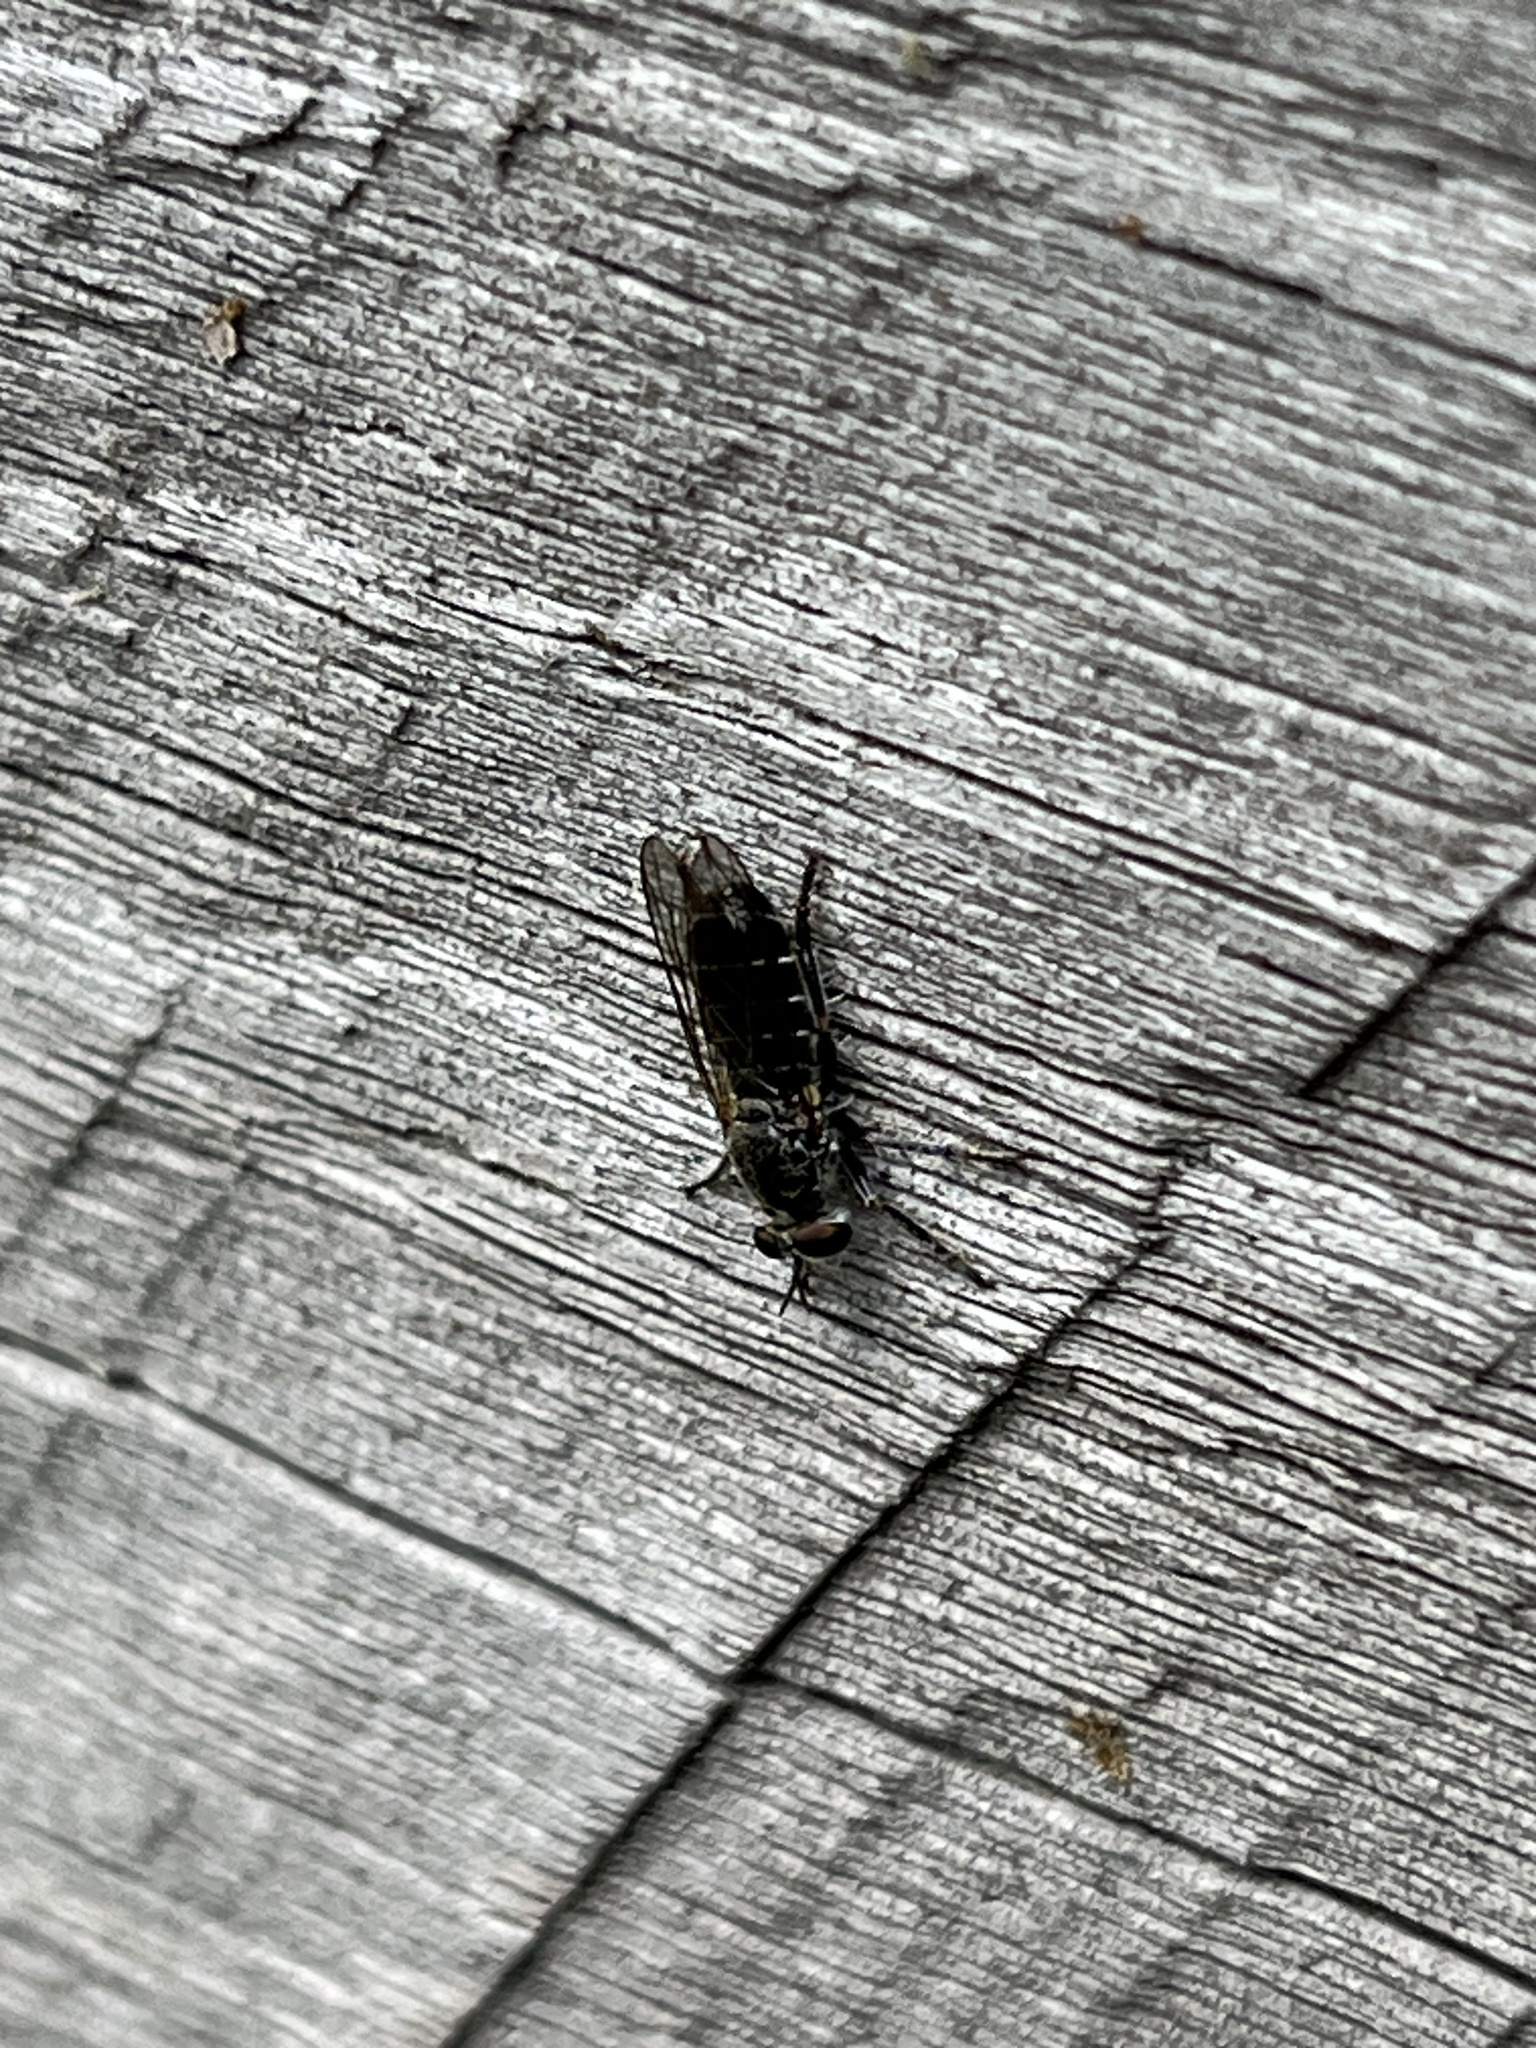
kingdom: Animalia
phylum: Arthropoda
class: Insecta
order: Diptera
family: Asilidae
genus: Atomosia
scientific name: Atomosia puella
